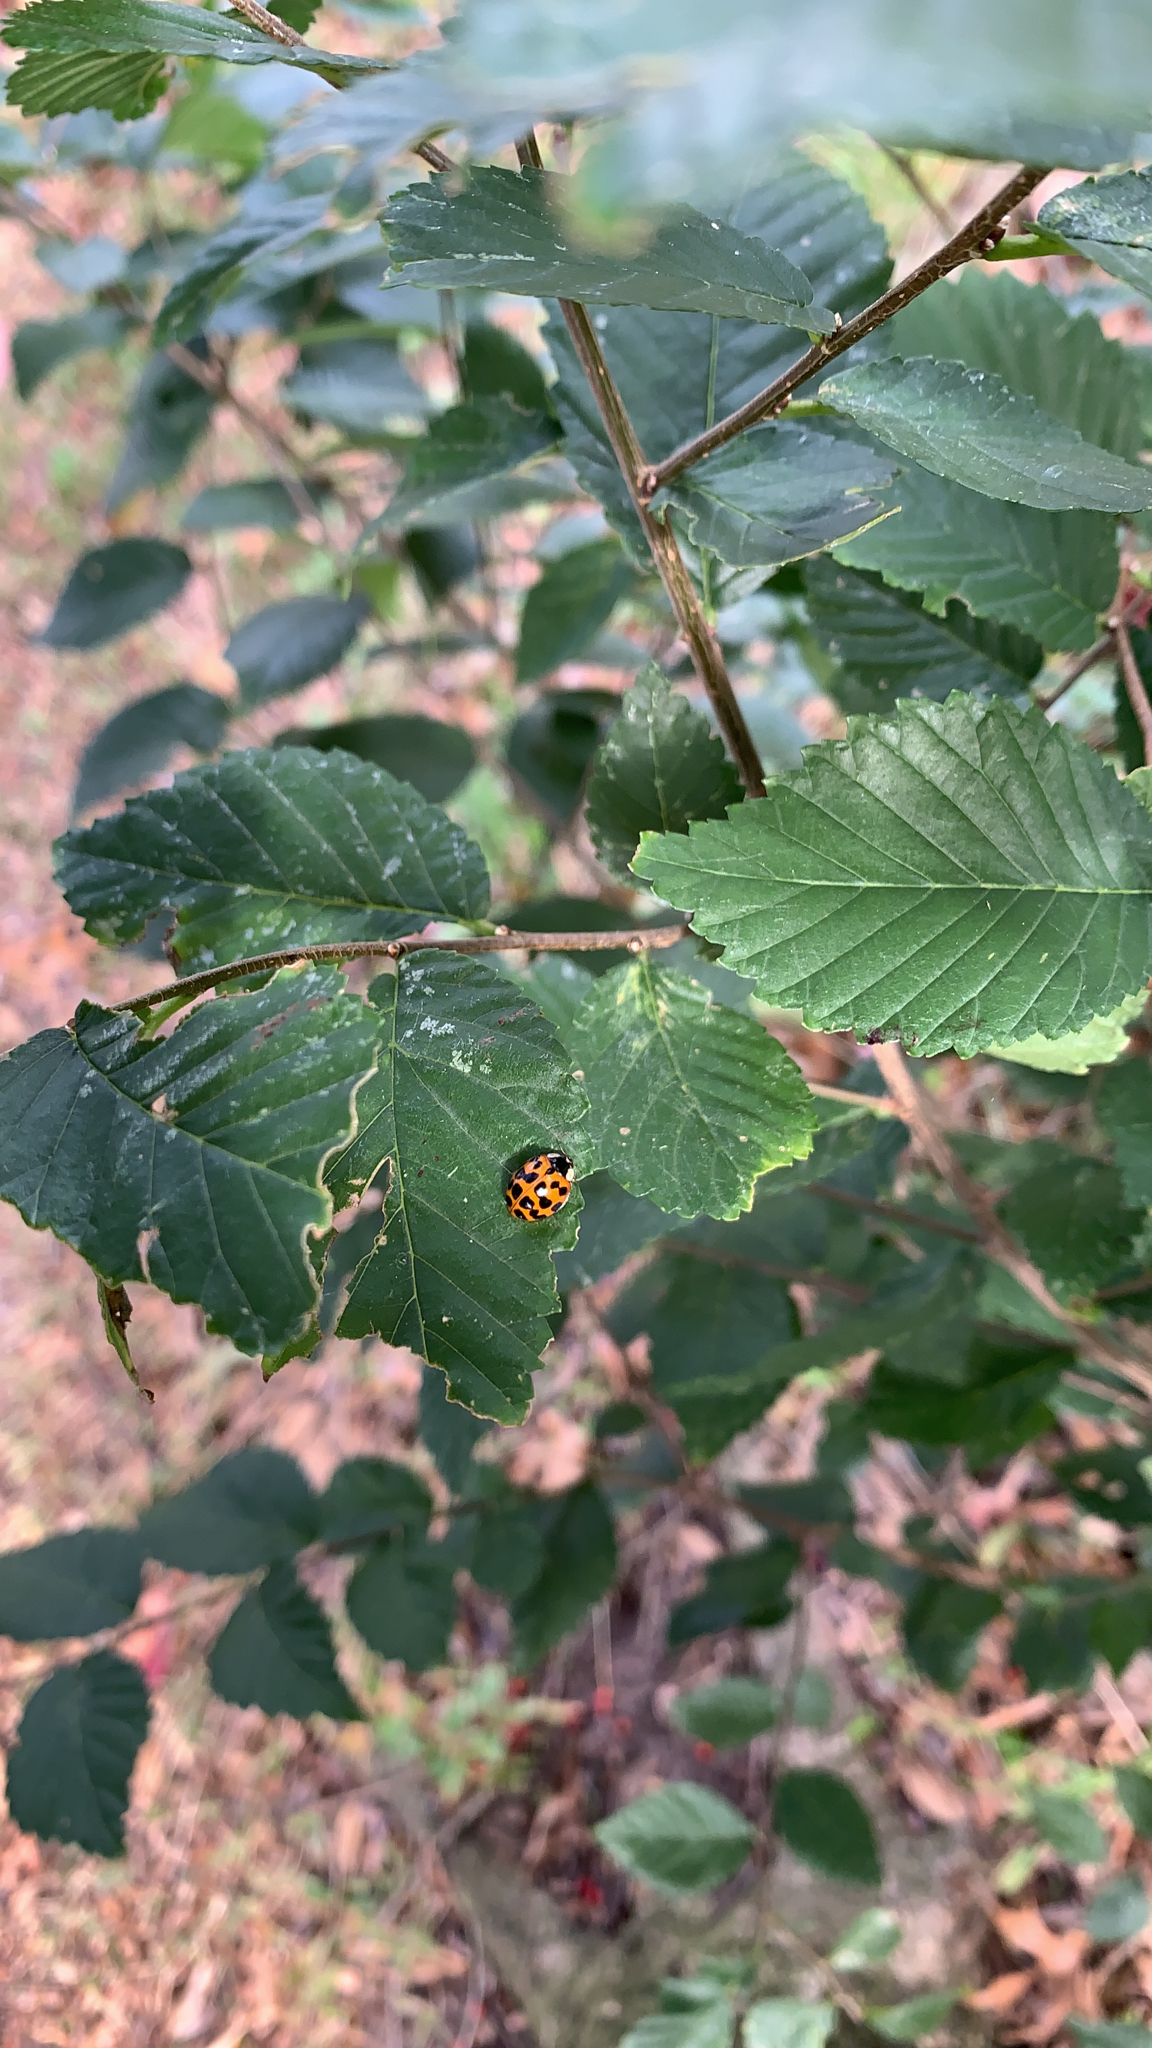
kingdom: Animalia
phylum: Arthropoda
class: Insecta
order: Coleoptera
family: Coccinellidae
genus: Harmonia
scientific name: Harmonia axyridis
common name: Harlequin ladybird
